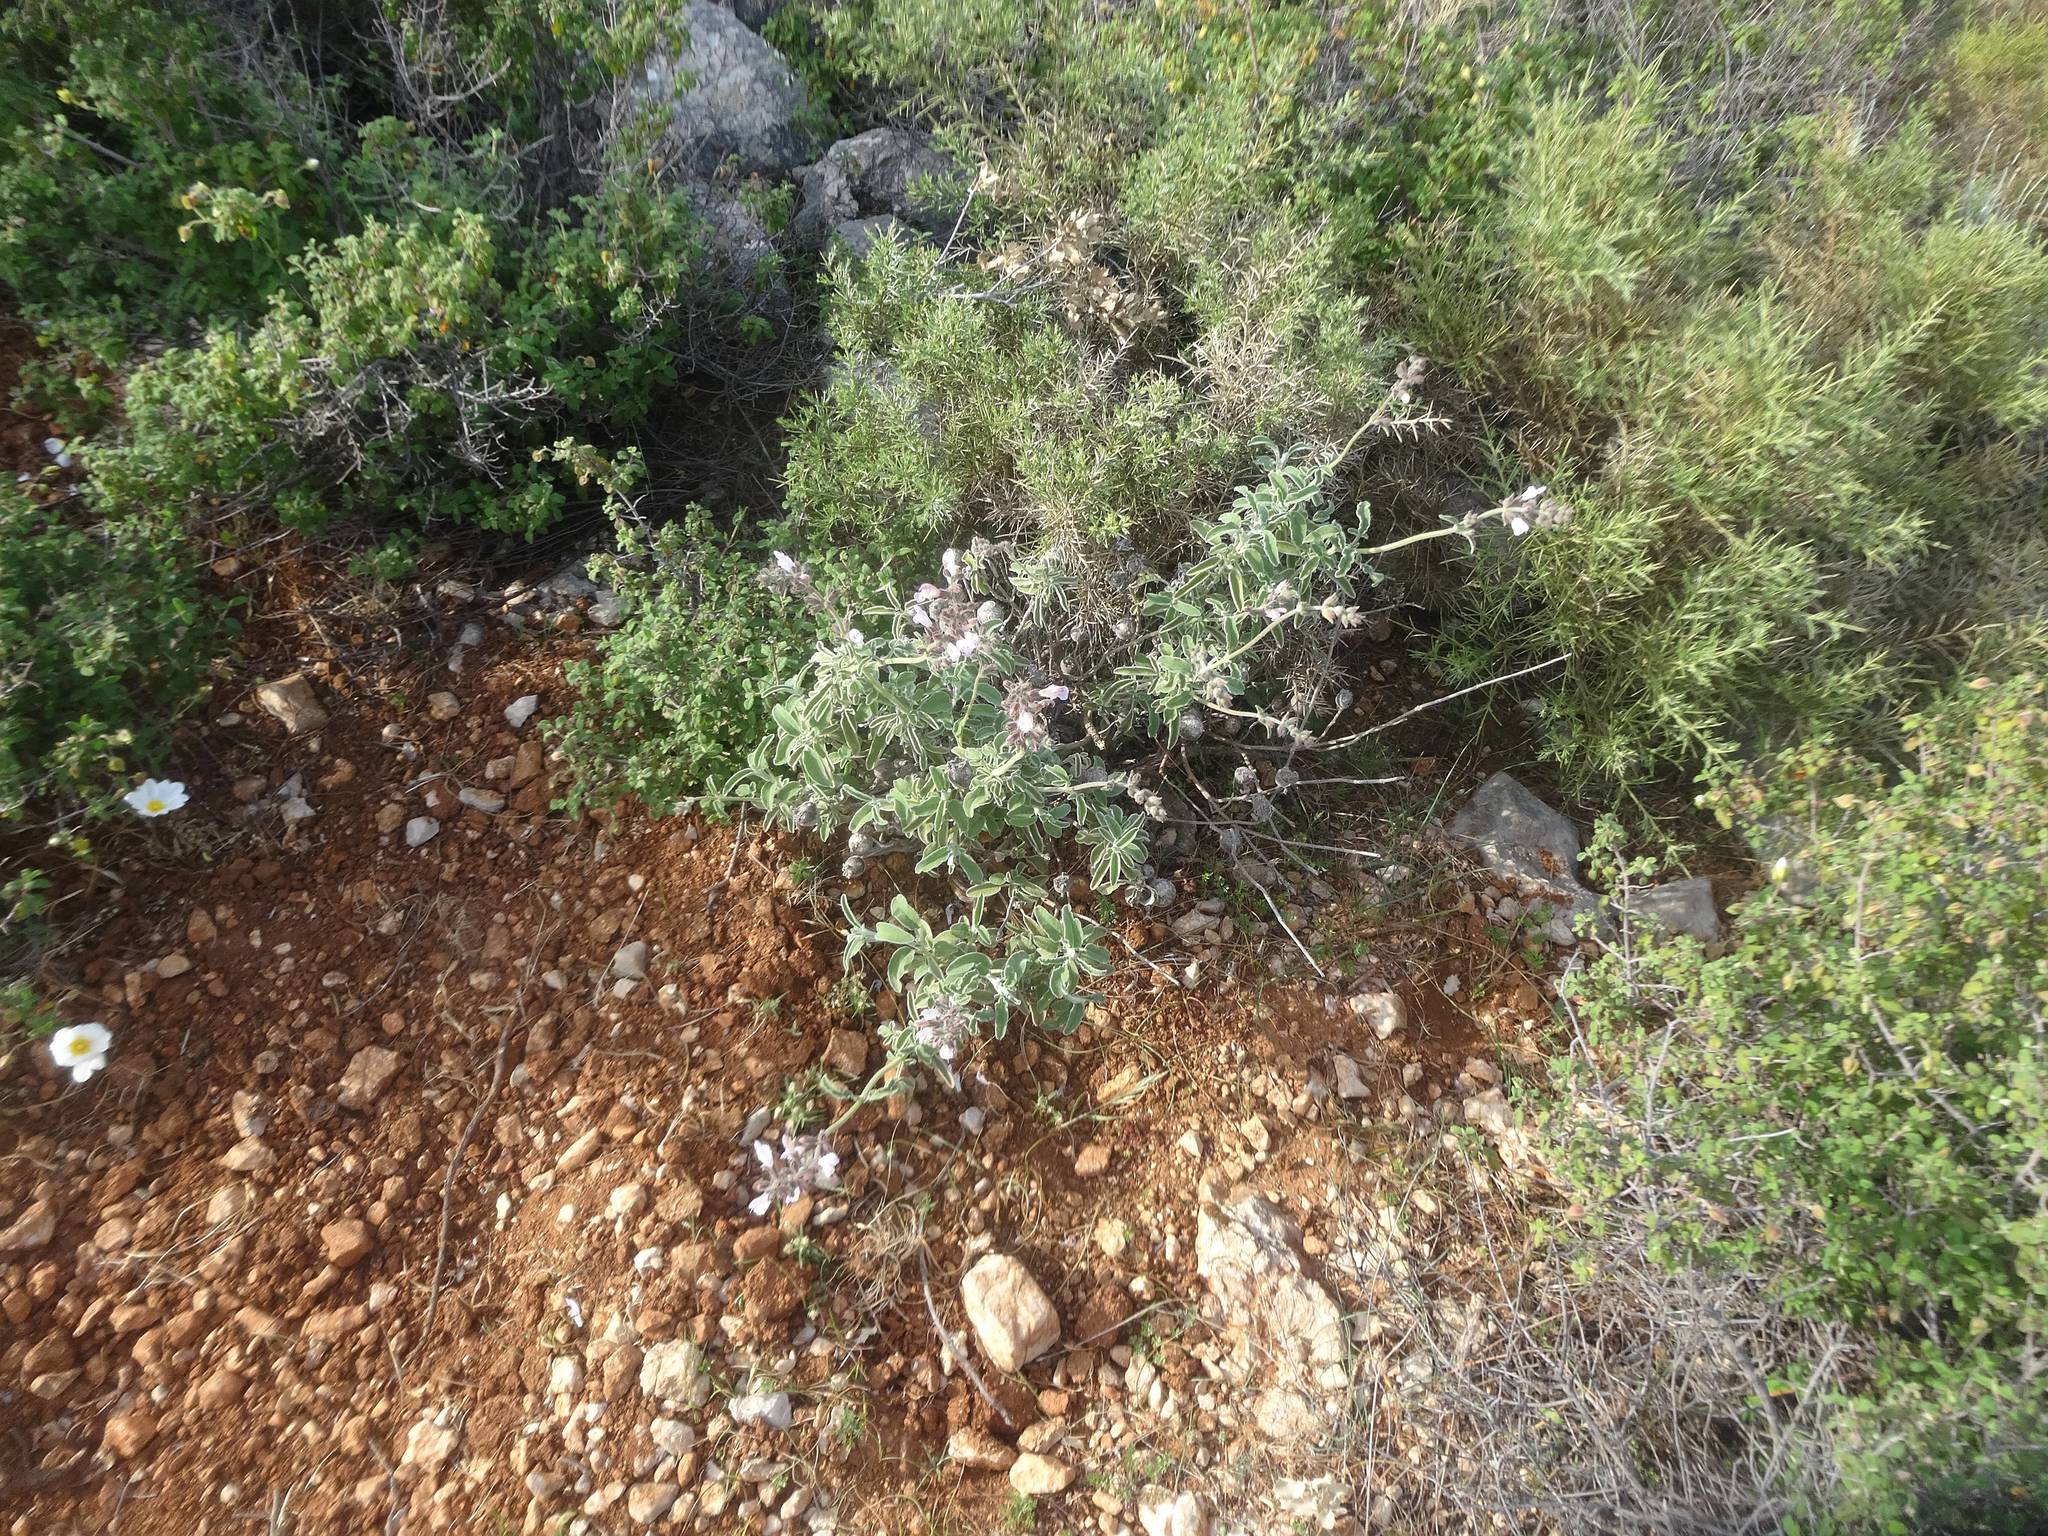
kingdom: Plantae
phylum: Tracheophyta
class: Magnoliopsida
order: Lamiales
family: Lamiaceae
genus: Salvia
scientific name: Salvia fruticosa
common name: Greek sage
